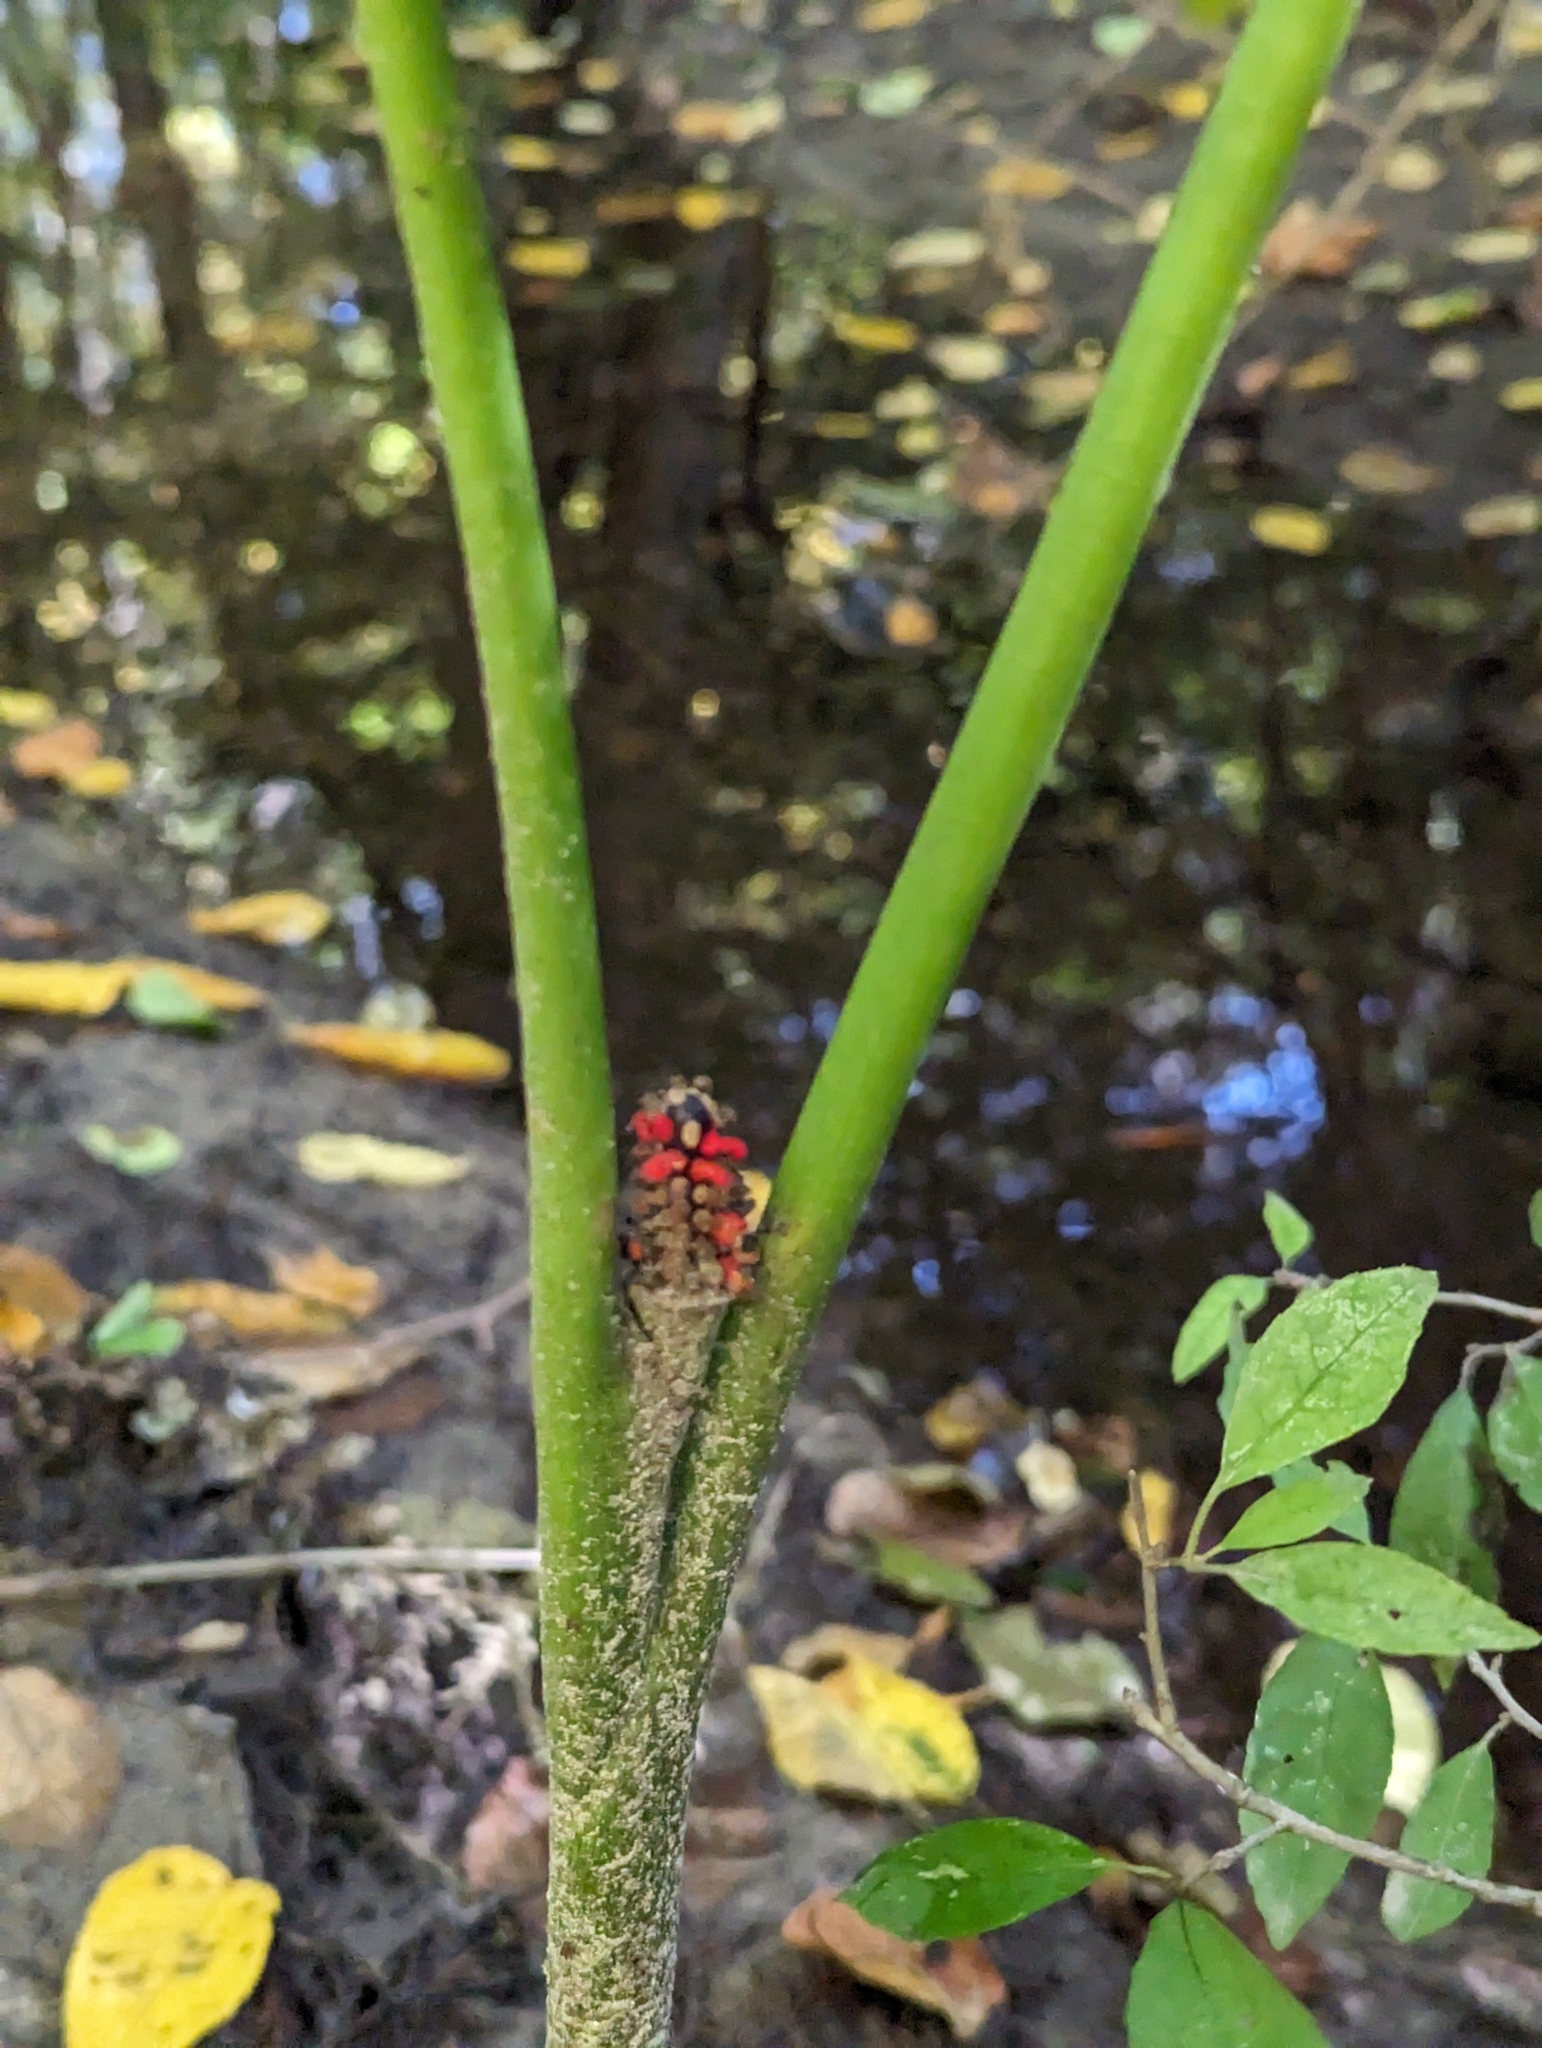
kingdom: Plantae
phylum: Tracheophyta
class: Liliopsida
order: Alismatales
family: Araceae
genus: Arisaema
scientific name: Arisaema triphyllum
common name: Jack-in-the-pulpit
